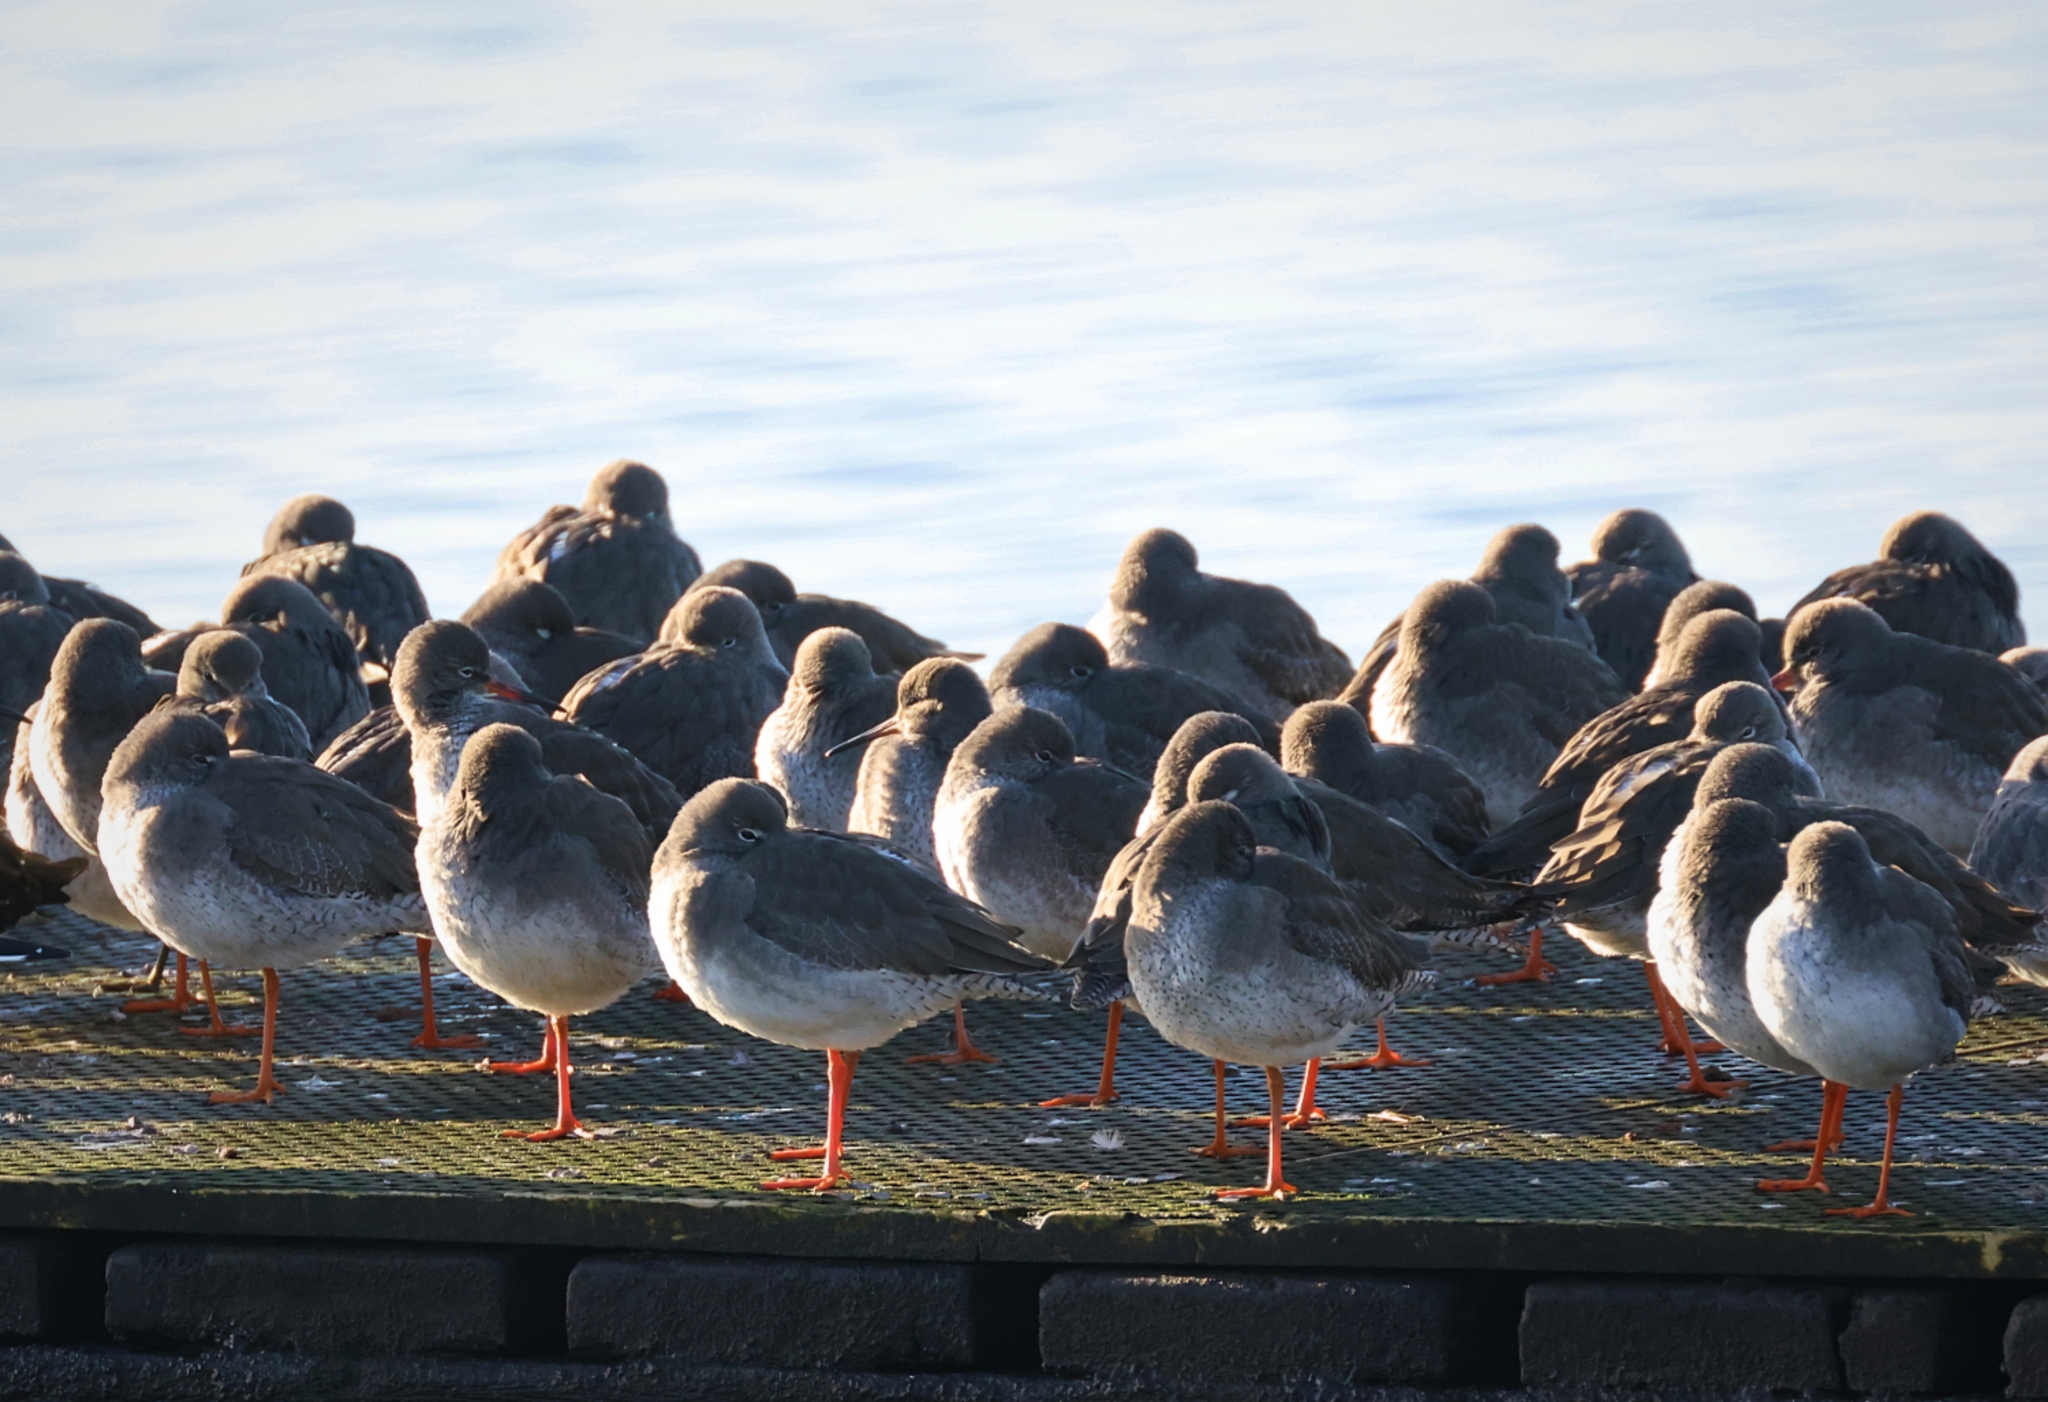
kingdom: Animalia
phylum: Chordata
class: Aves
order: Charadriiformes
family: Scolopacidae
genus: Tringa
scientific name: Tringa totanus
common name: Common redshank
